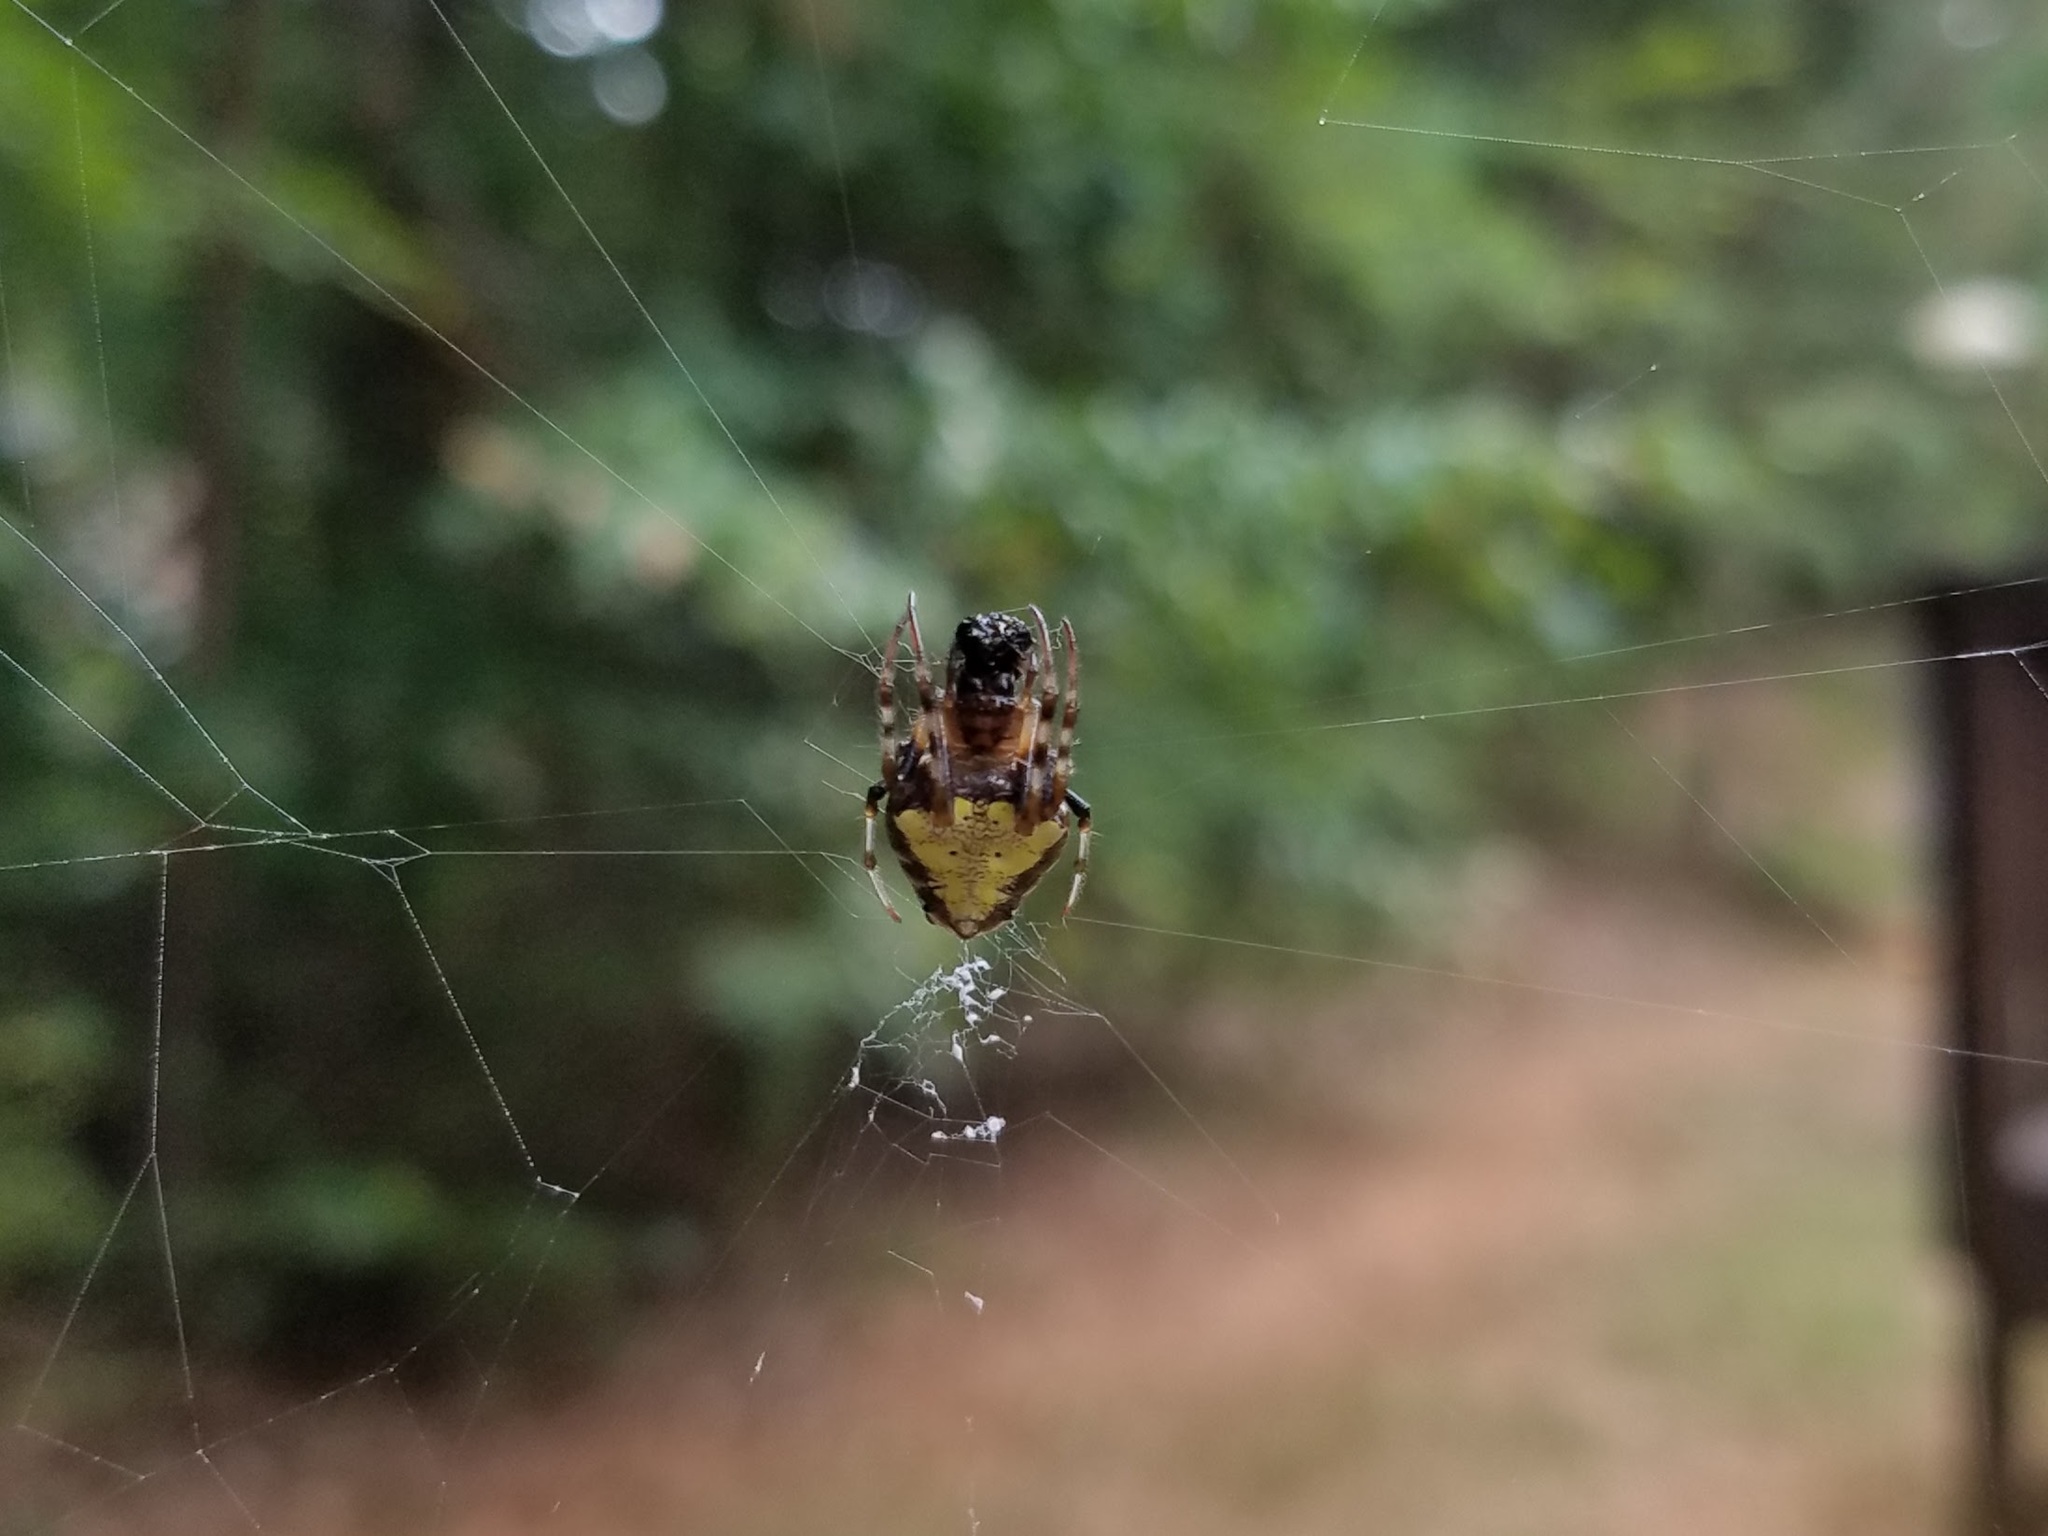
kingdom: Animalia
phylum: Arthropoda
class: Arachnida
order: Araneae
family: Araneidae
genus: Verrucosa
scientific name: Verrucosa arenata
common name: Orb weavers
